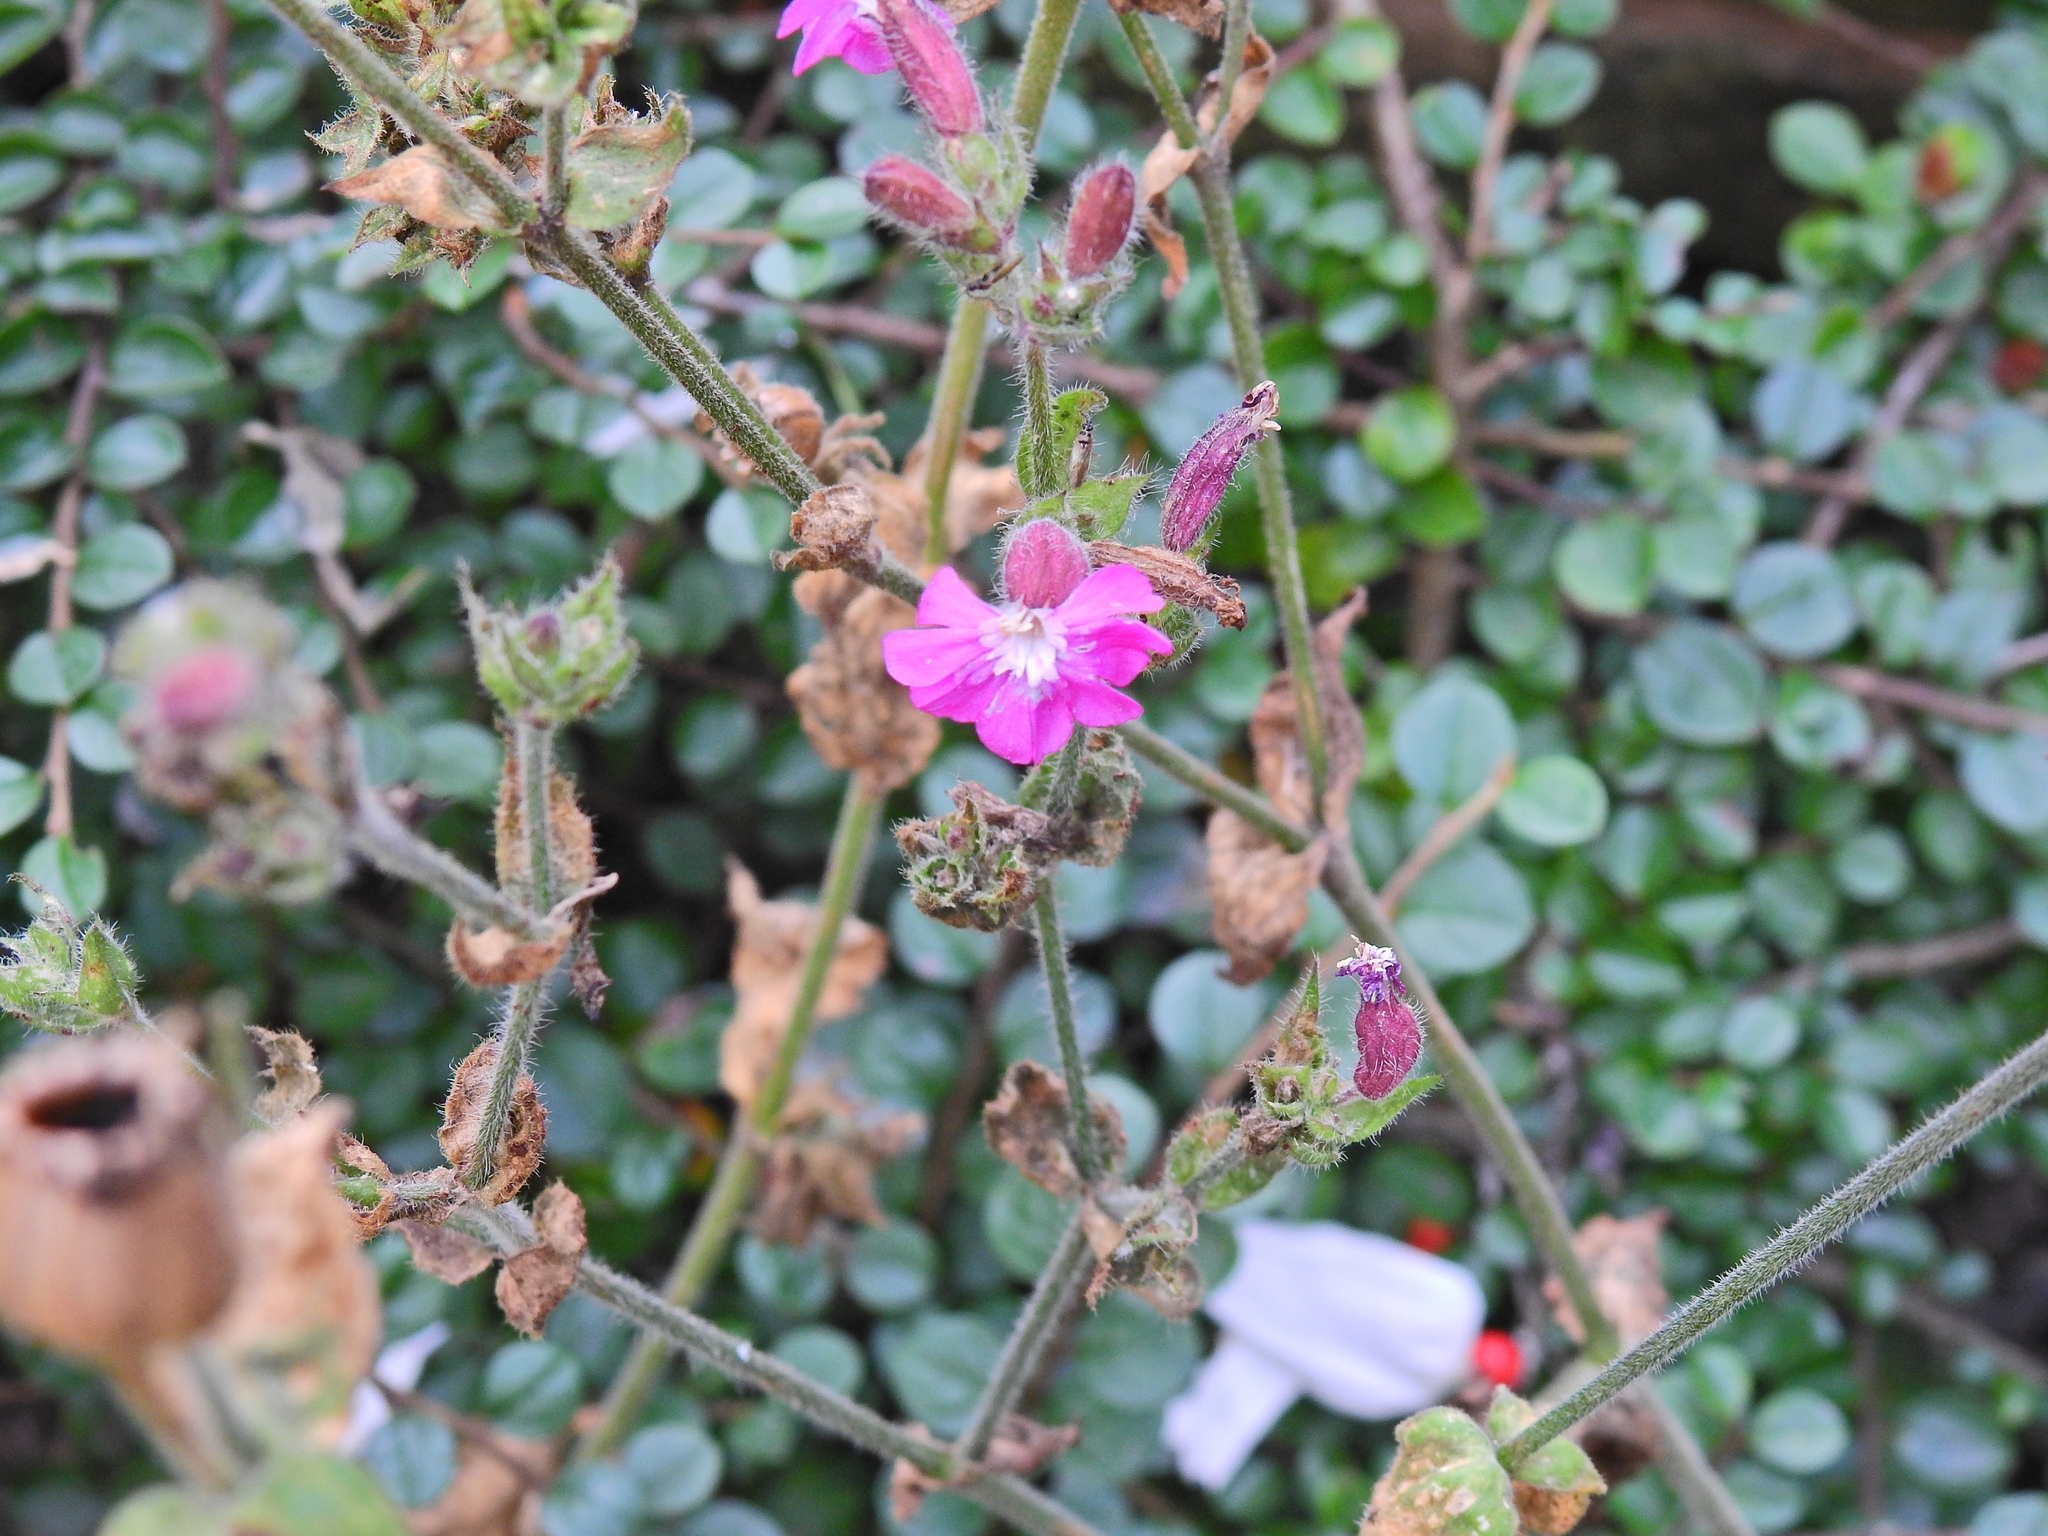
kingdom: Plantae
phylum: Tracheophyta
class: Magnoliopsida
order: Caryophyllales
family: Caryophyllaceae
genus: Silene
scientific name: Silene dioica
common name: Red campion
